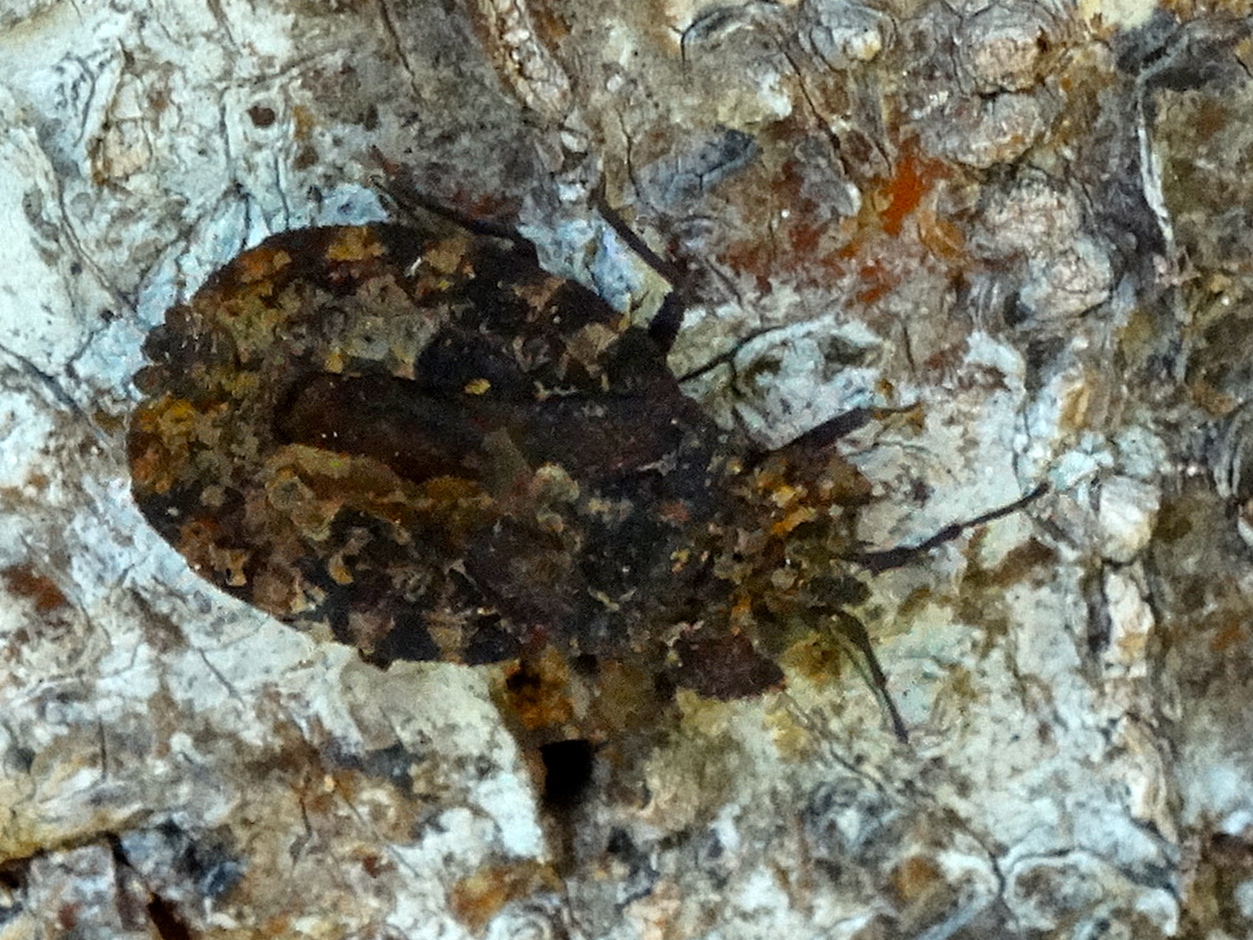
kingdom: Animalia
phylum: Arthropoda
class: Insecta
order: Hemiptera
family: Aradidae
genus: Dysodius
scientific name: Dysodius
